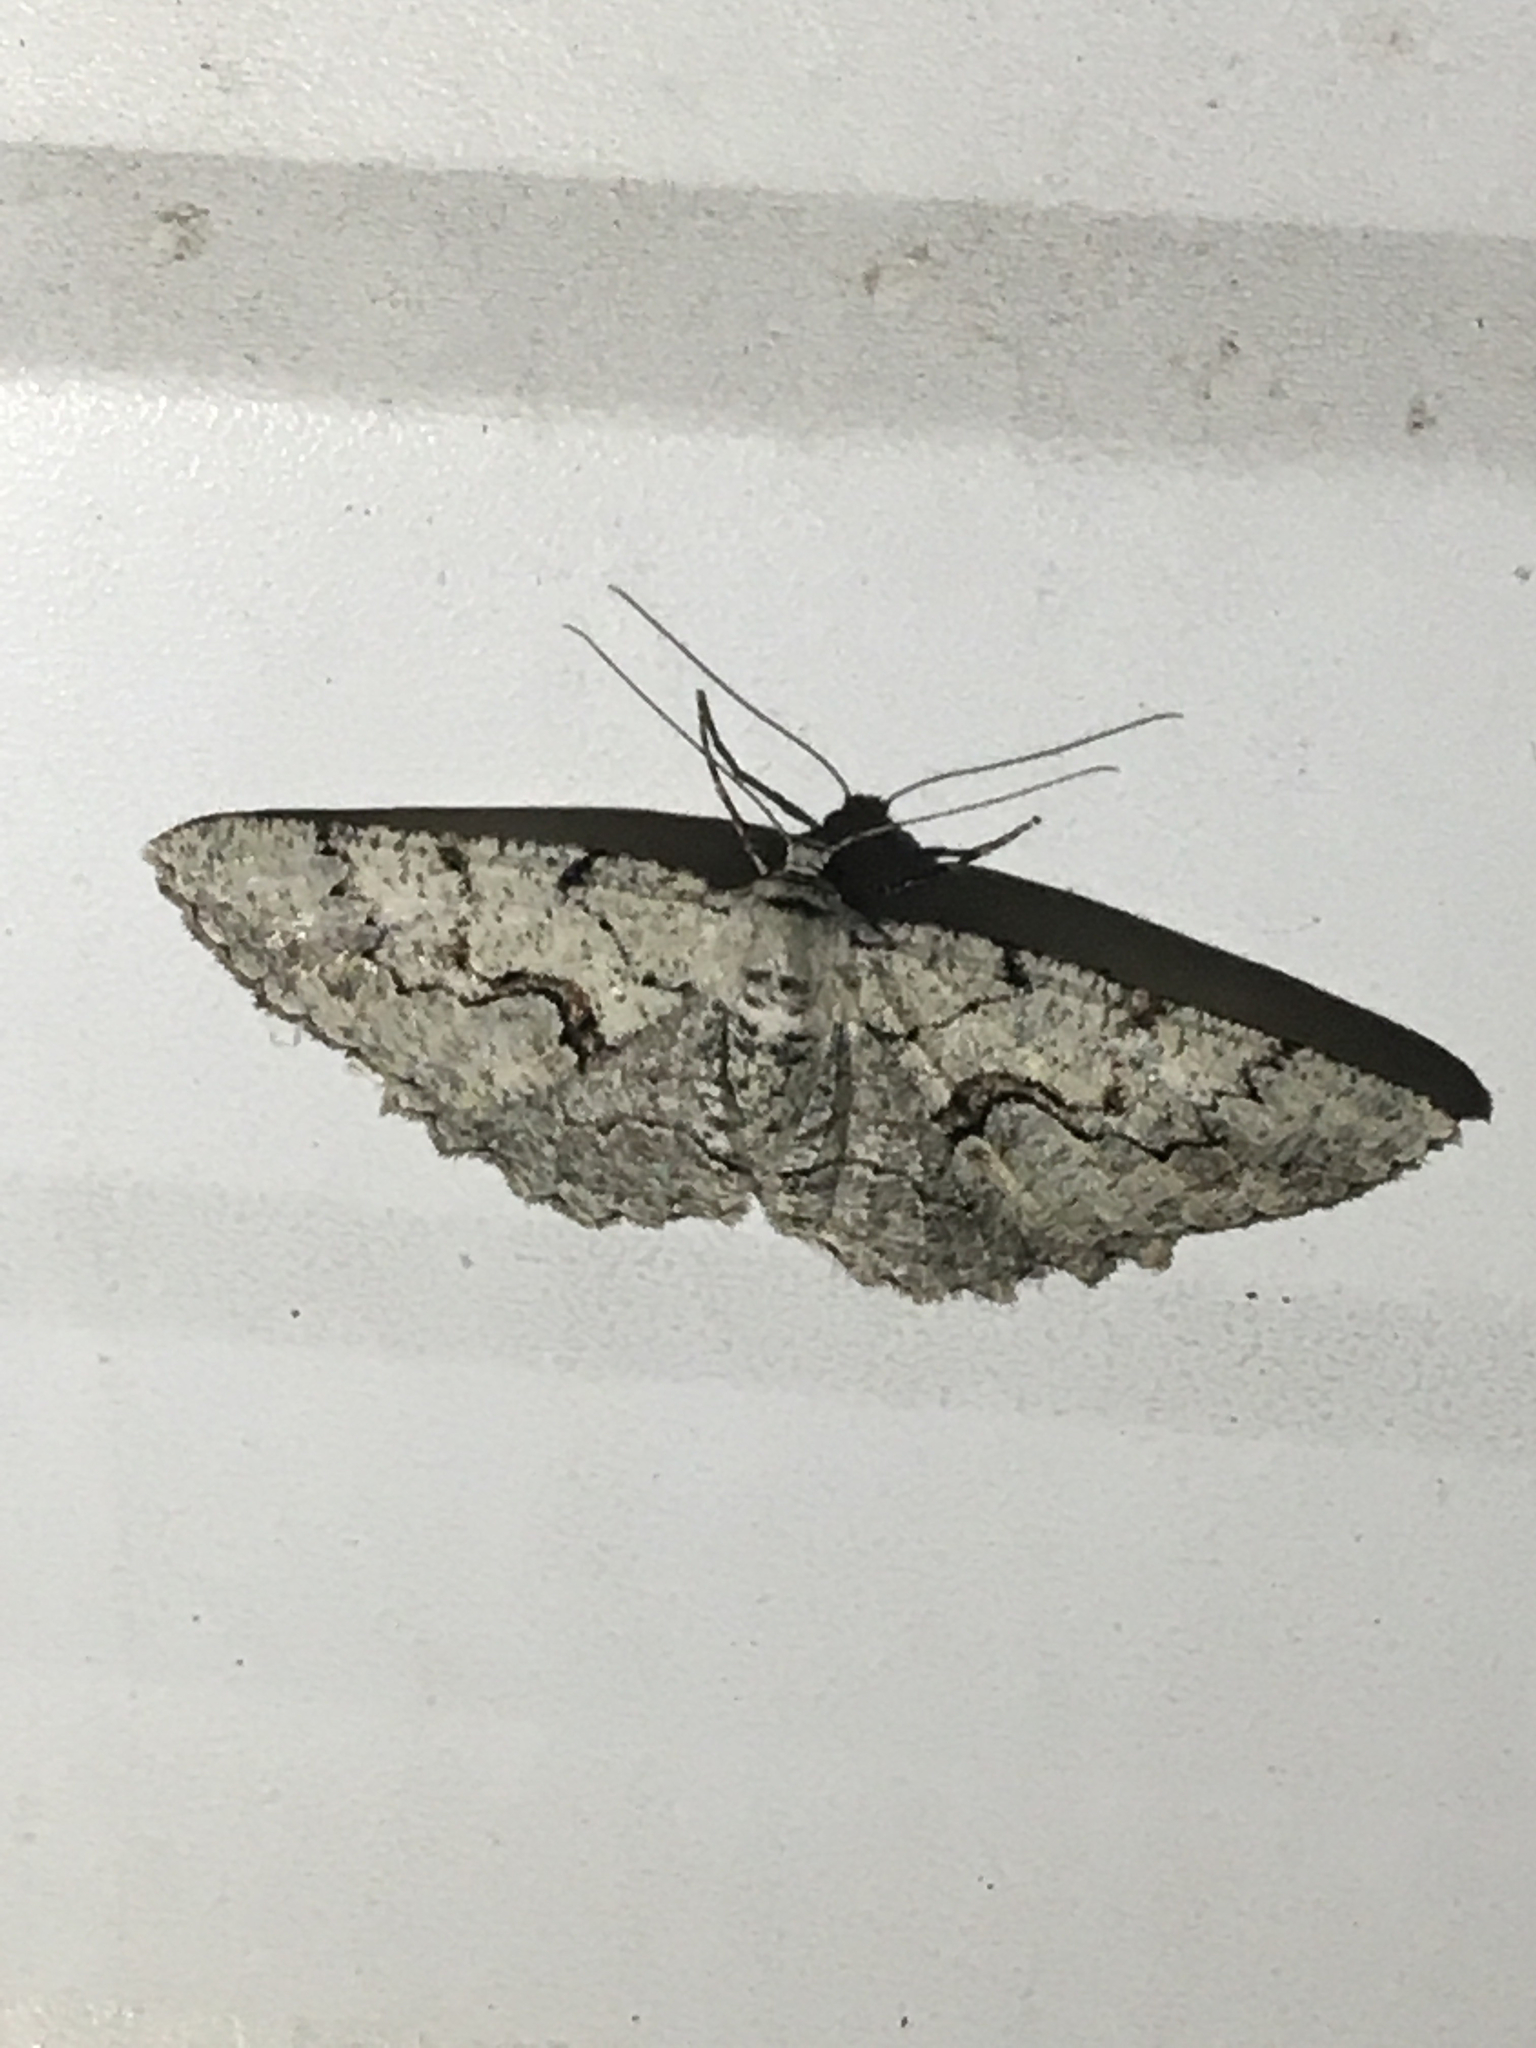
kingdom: Animalia
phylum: Arthropoda
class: Insecta
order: Lepidoptera
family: Geometridae
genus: Cymatophora
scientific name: Cymatophora approximaria
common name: Giant gray moth
